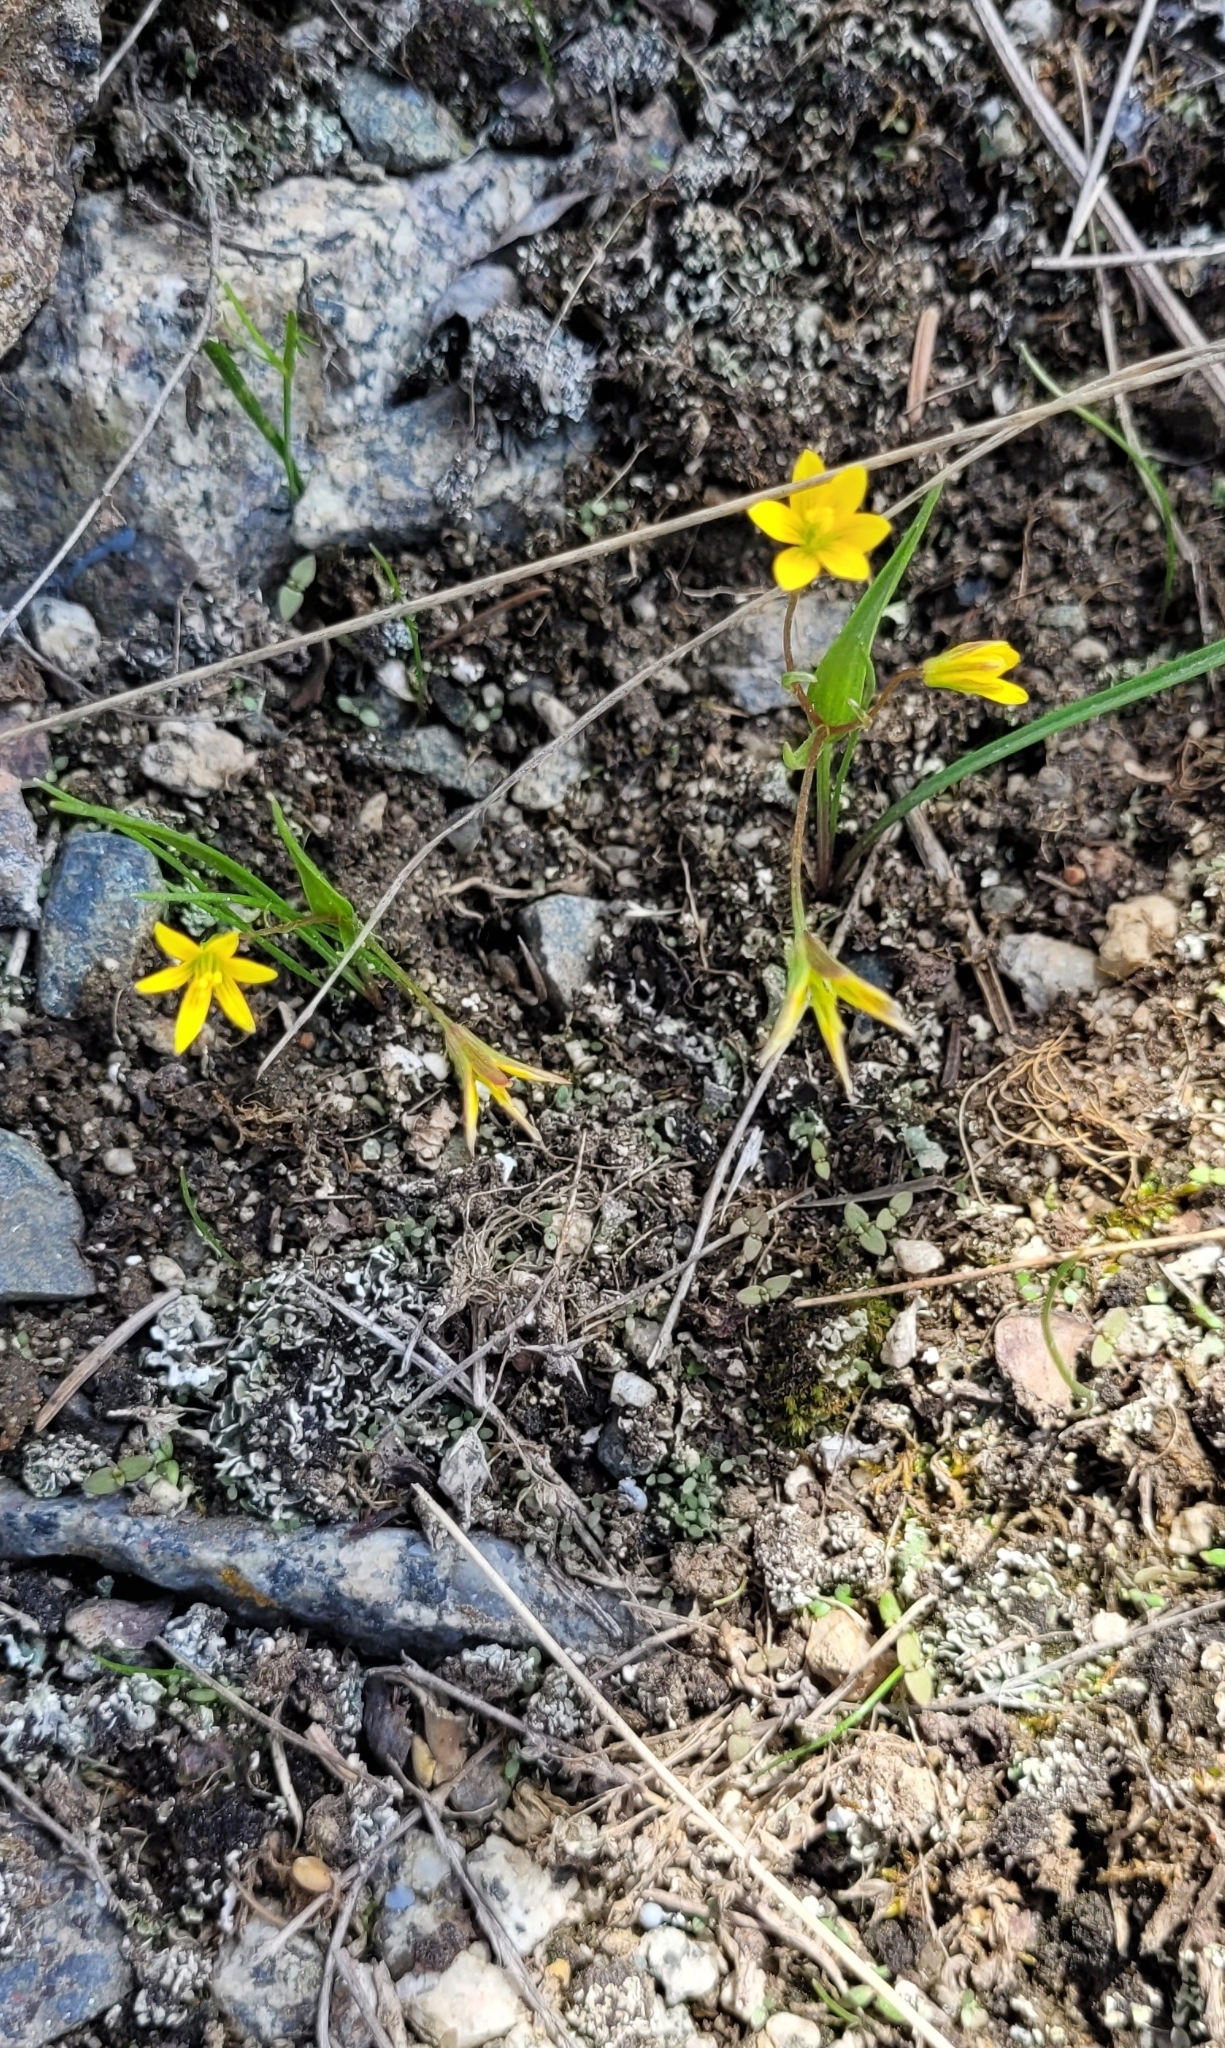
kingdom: Plantae
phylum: Tracheophyta
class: Liliopsida
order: Liliales
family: Liliaceae
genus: Gagea
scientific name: Gagea filiformis
